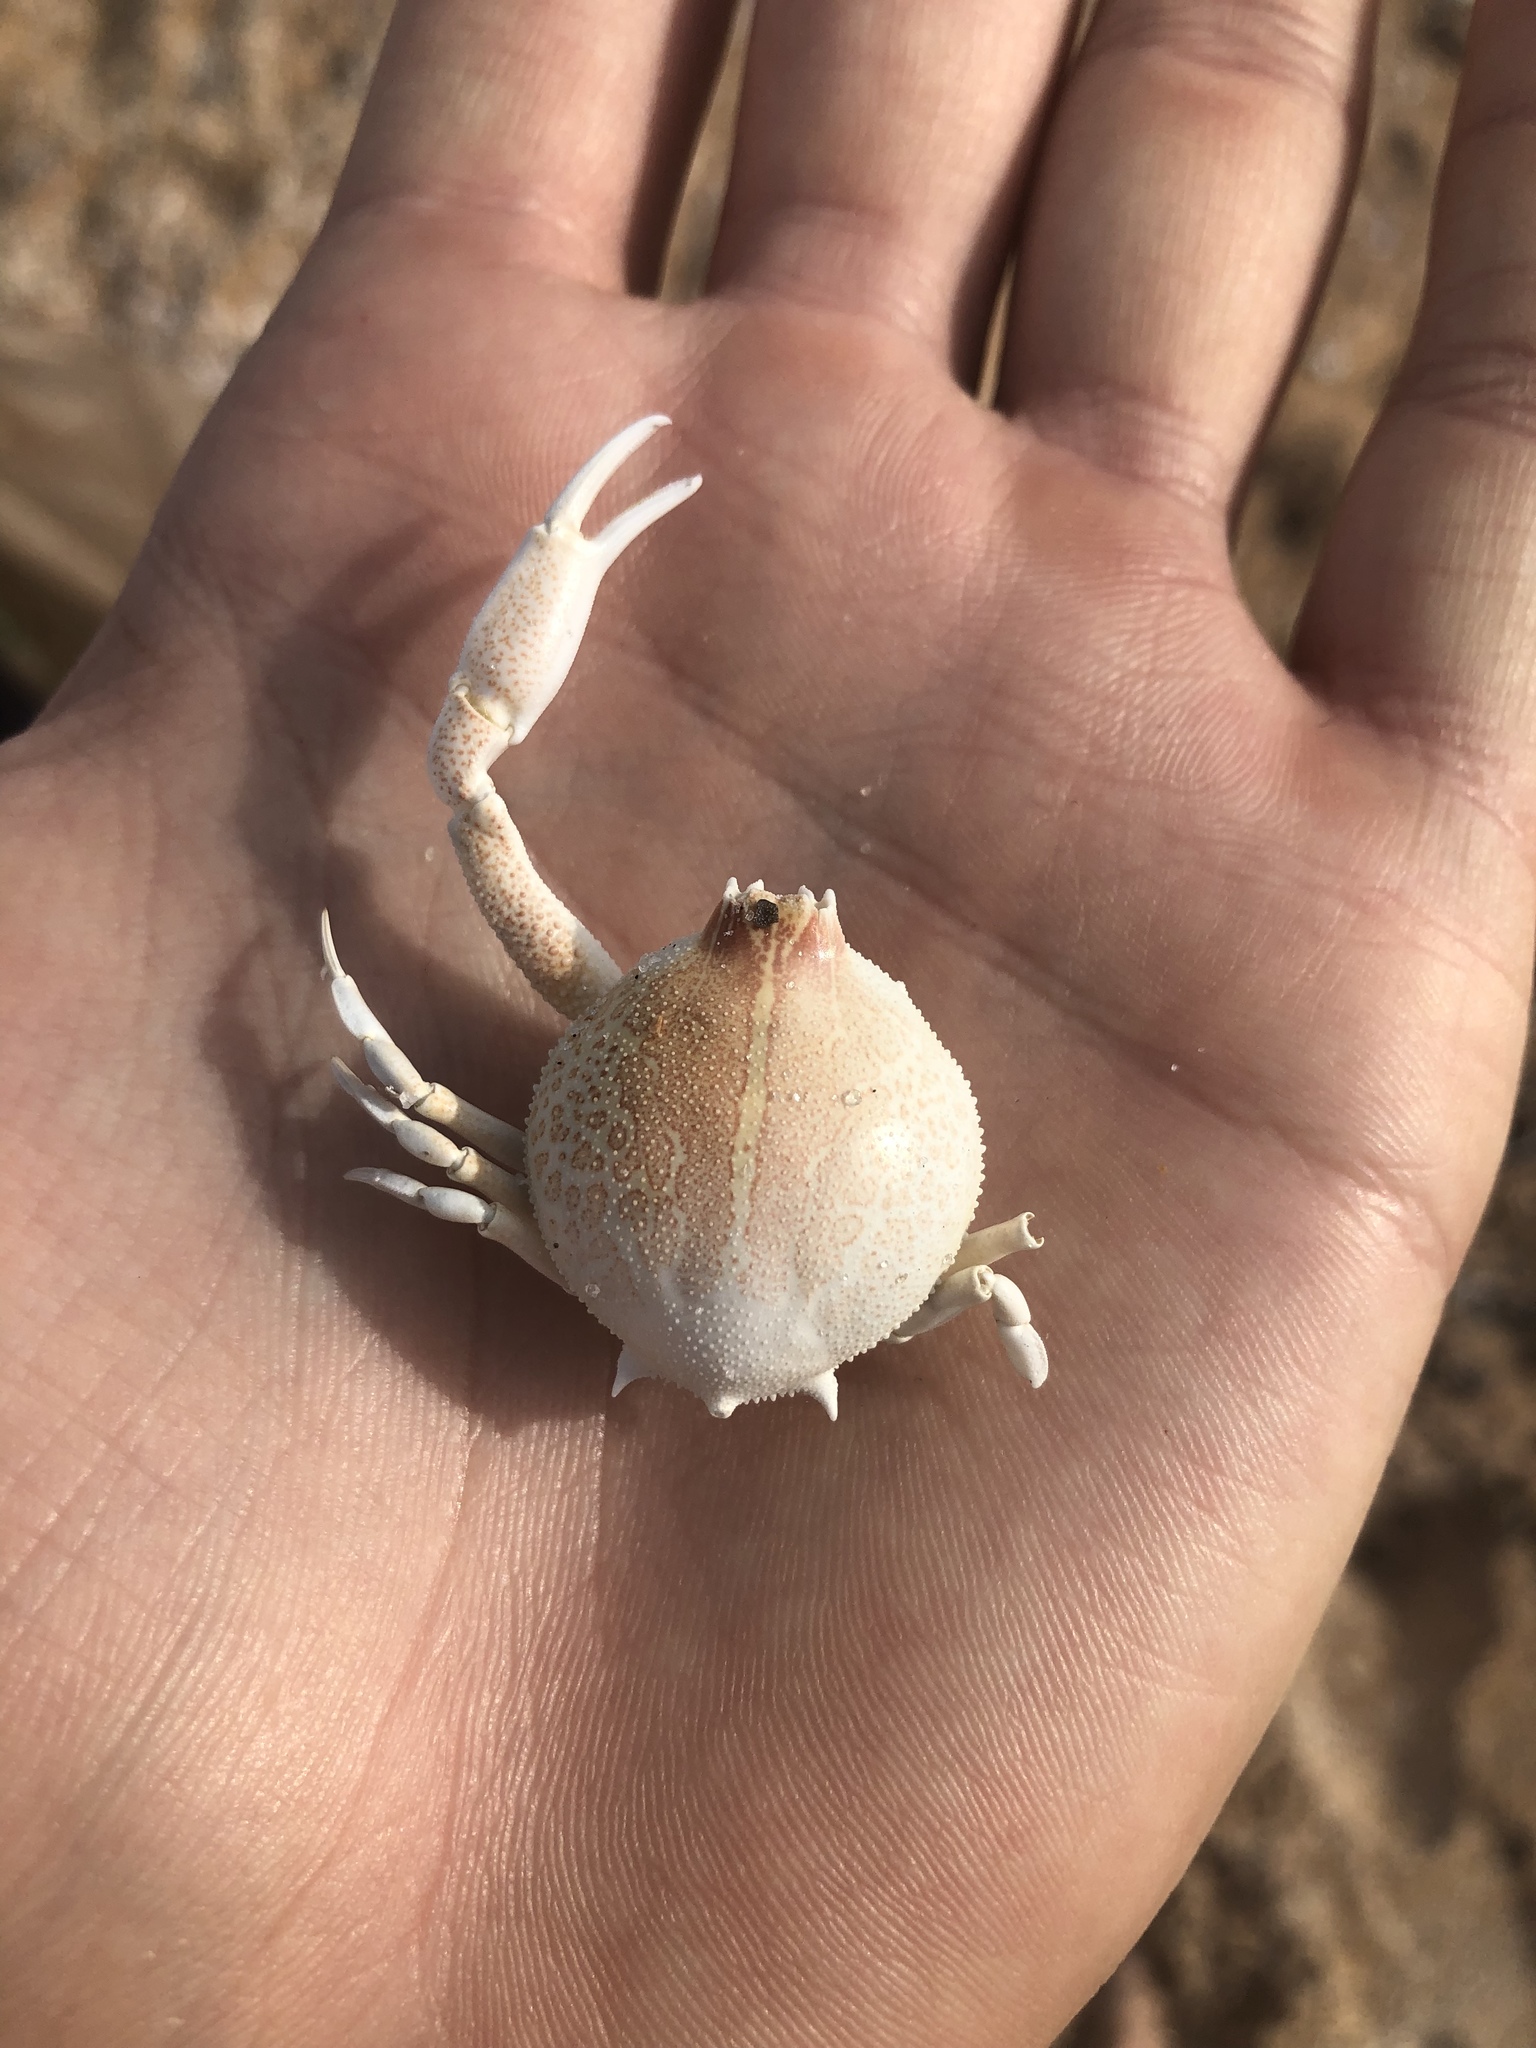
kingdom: Animalia
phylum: Arthropoda
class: Malacostraca
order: Decapoda
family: Leucosiidae
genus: Persephona
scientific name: Persephona aquilonaris
